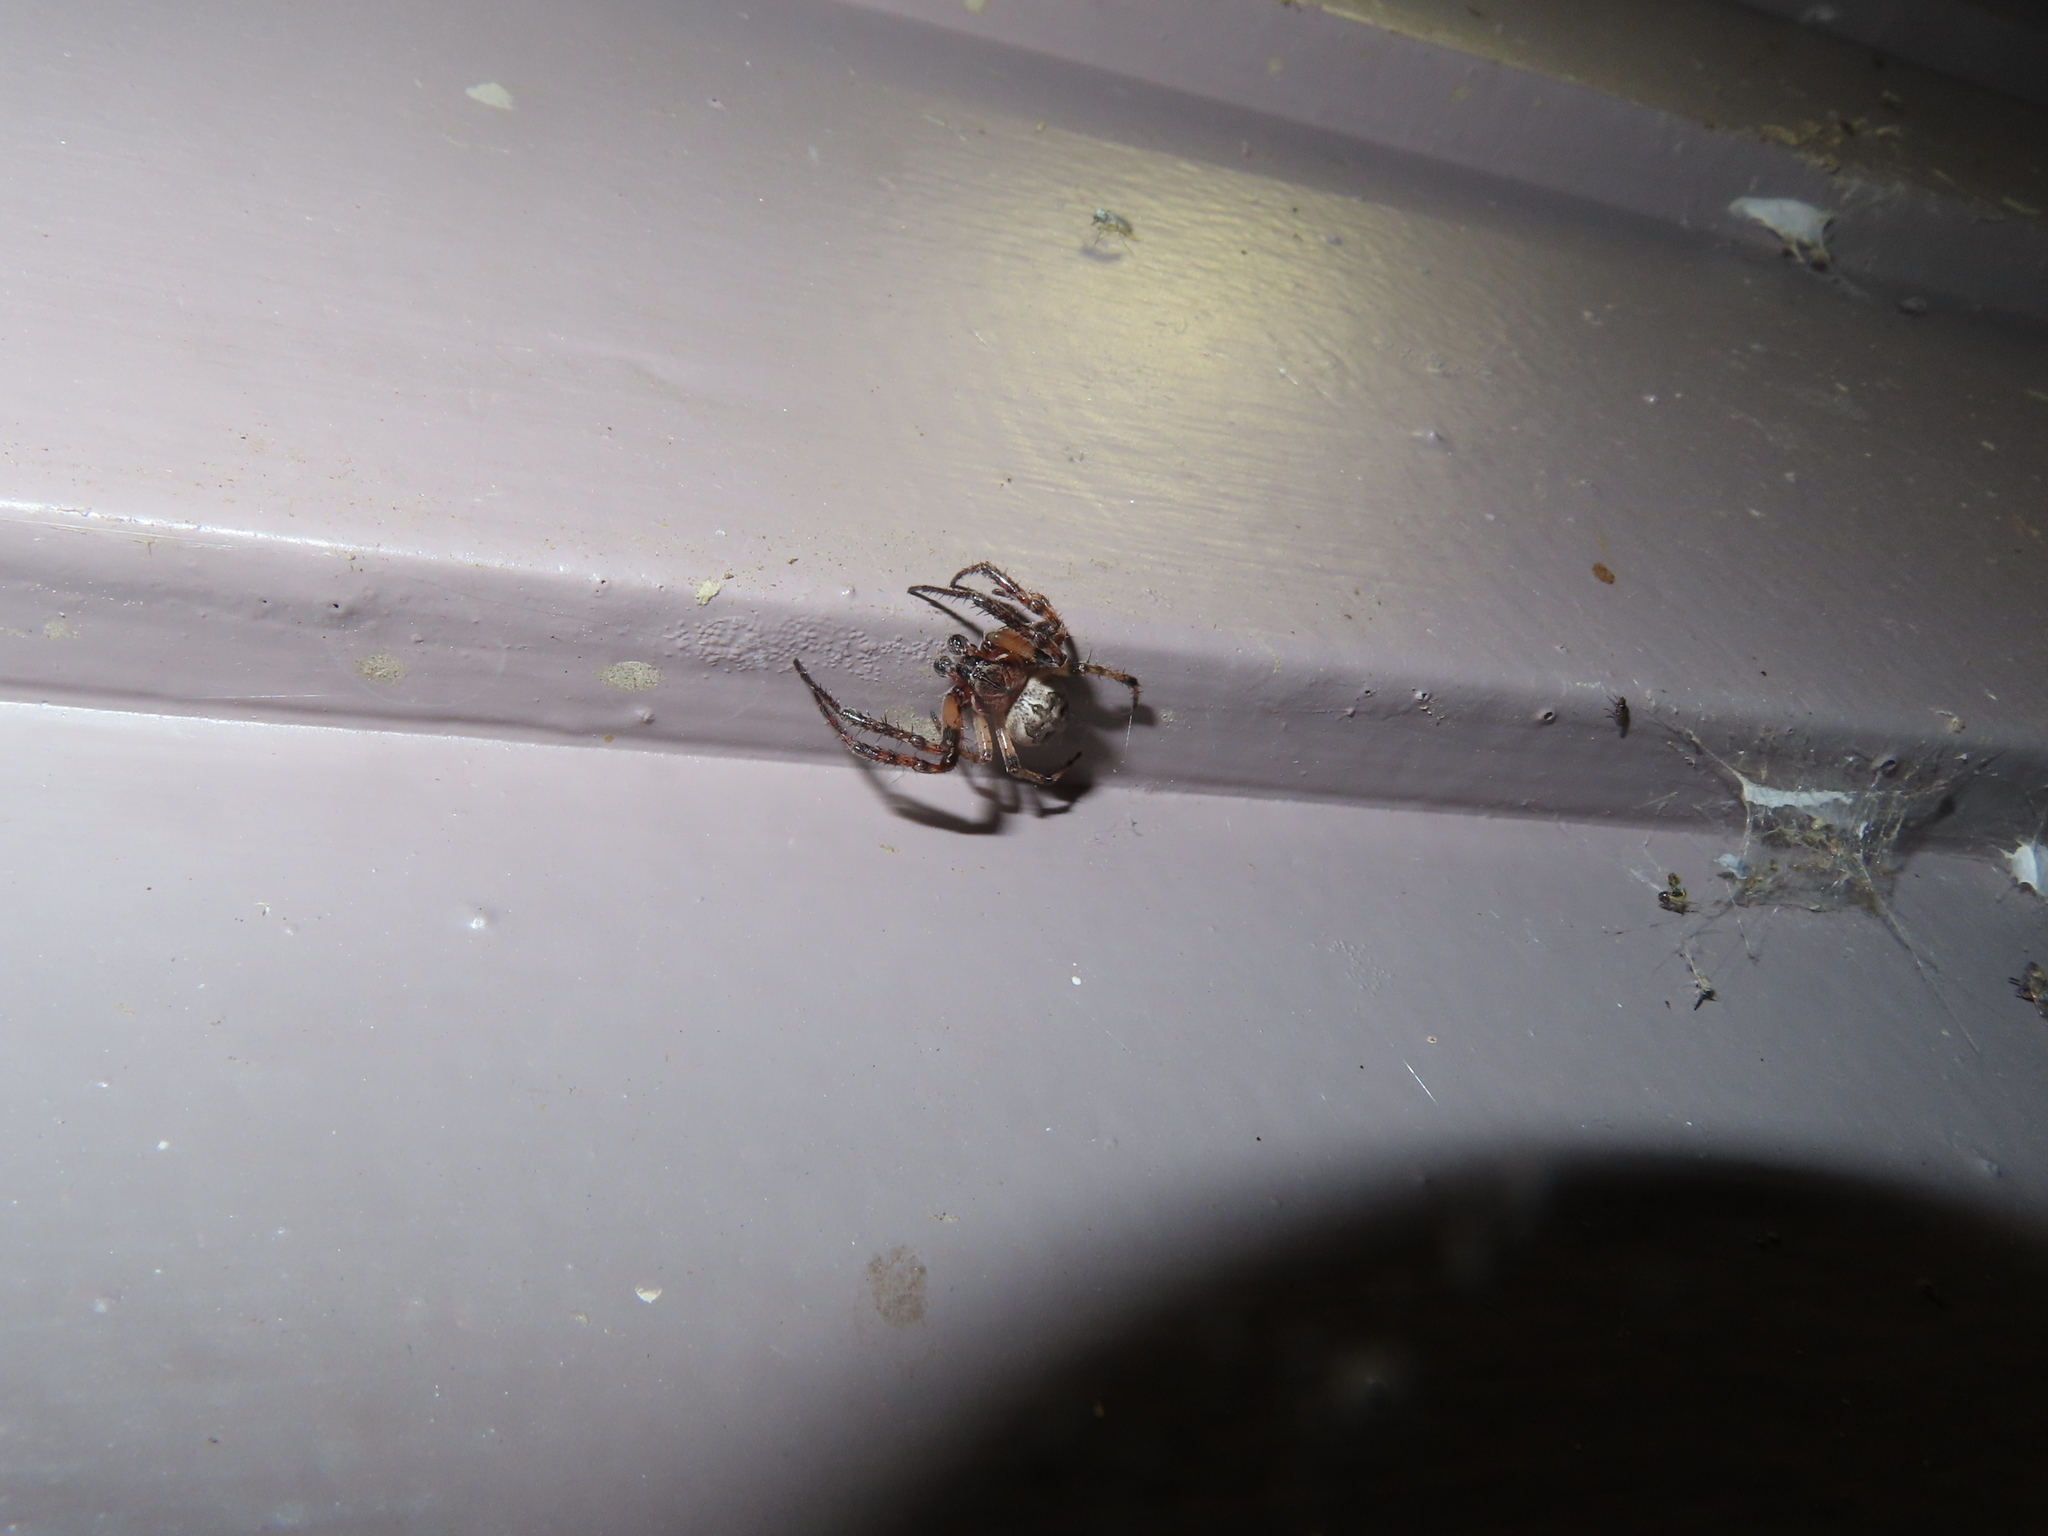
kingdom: Animalia
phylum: Arthropoda
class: Arachnida
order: Araneae
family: Araneidae
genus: Larinioides
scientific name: Larinioides cornutus
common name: Furrow orbweaver
